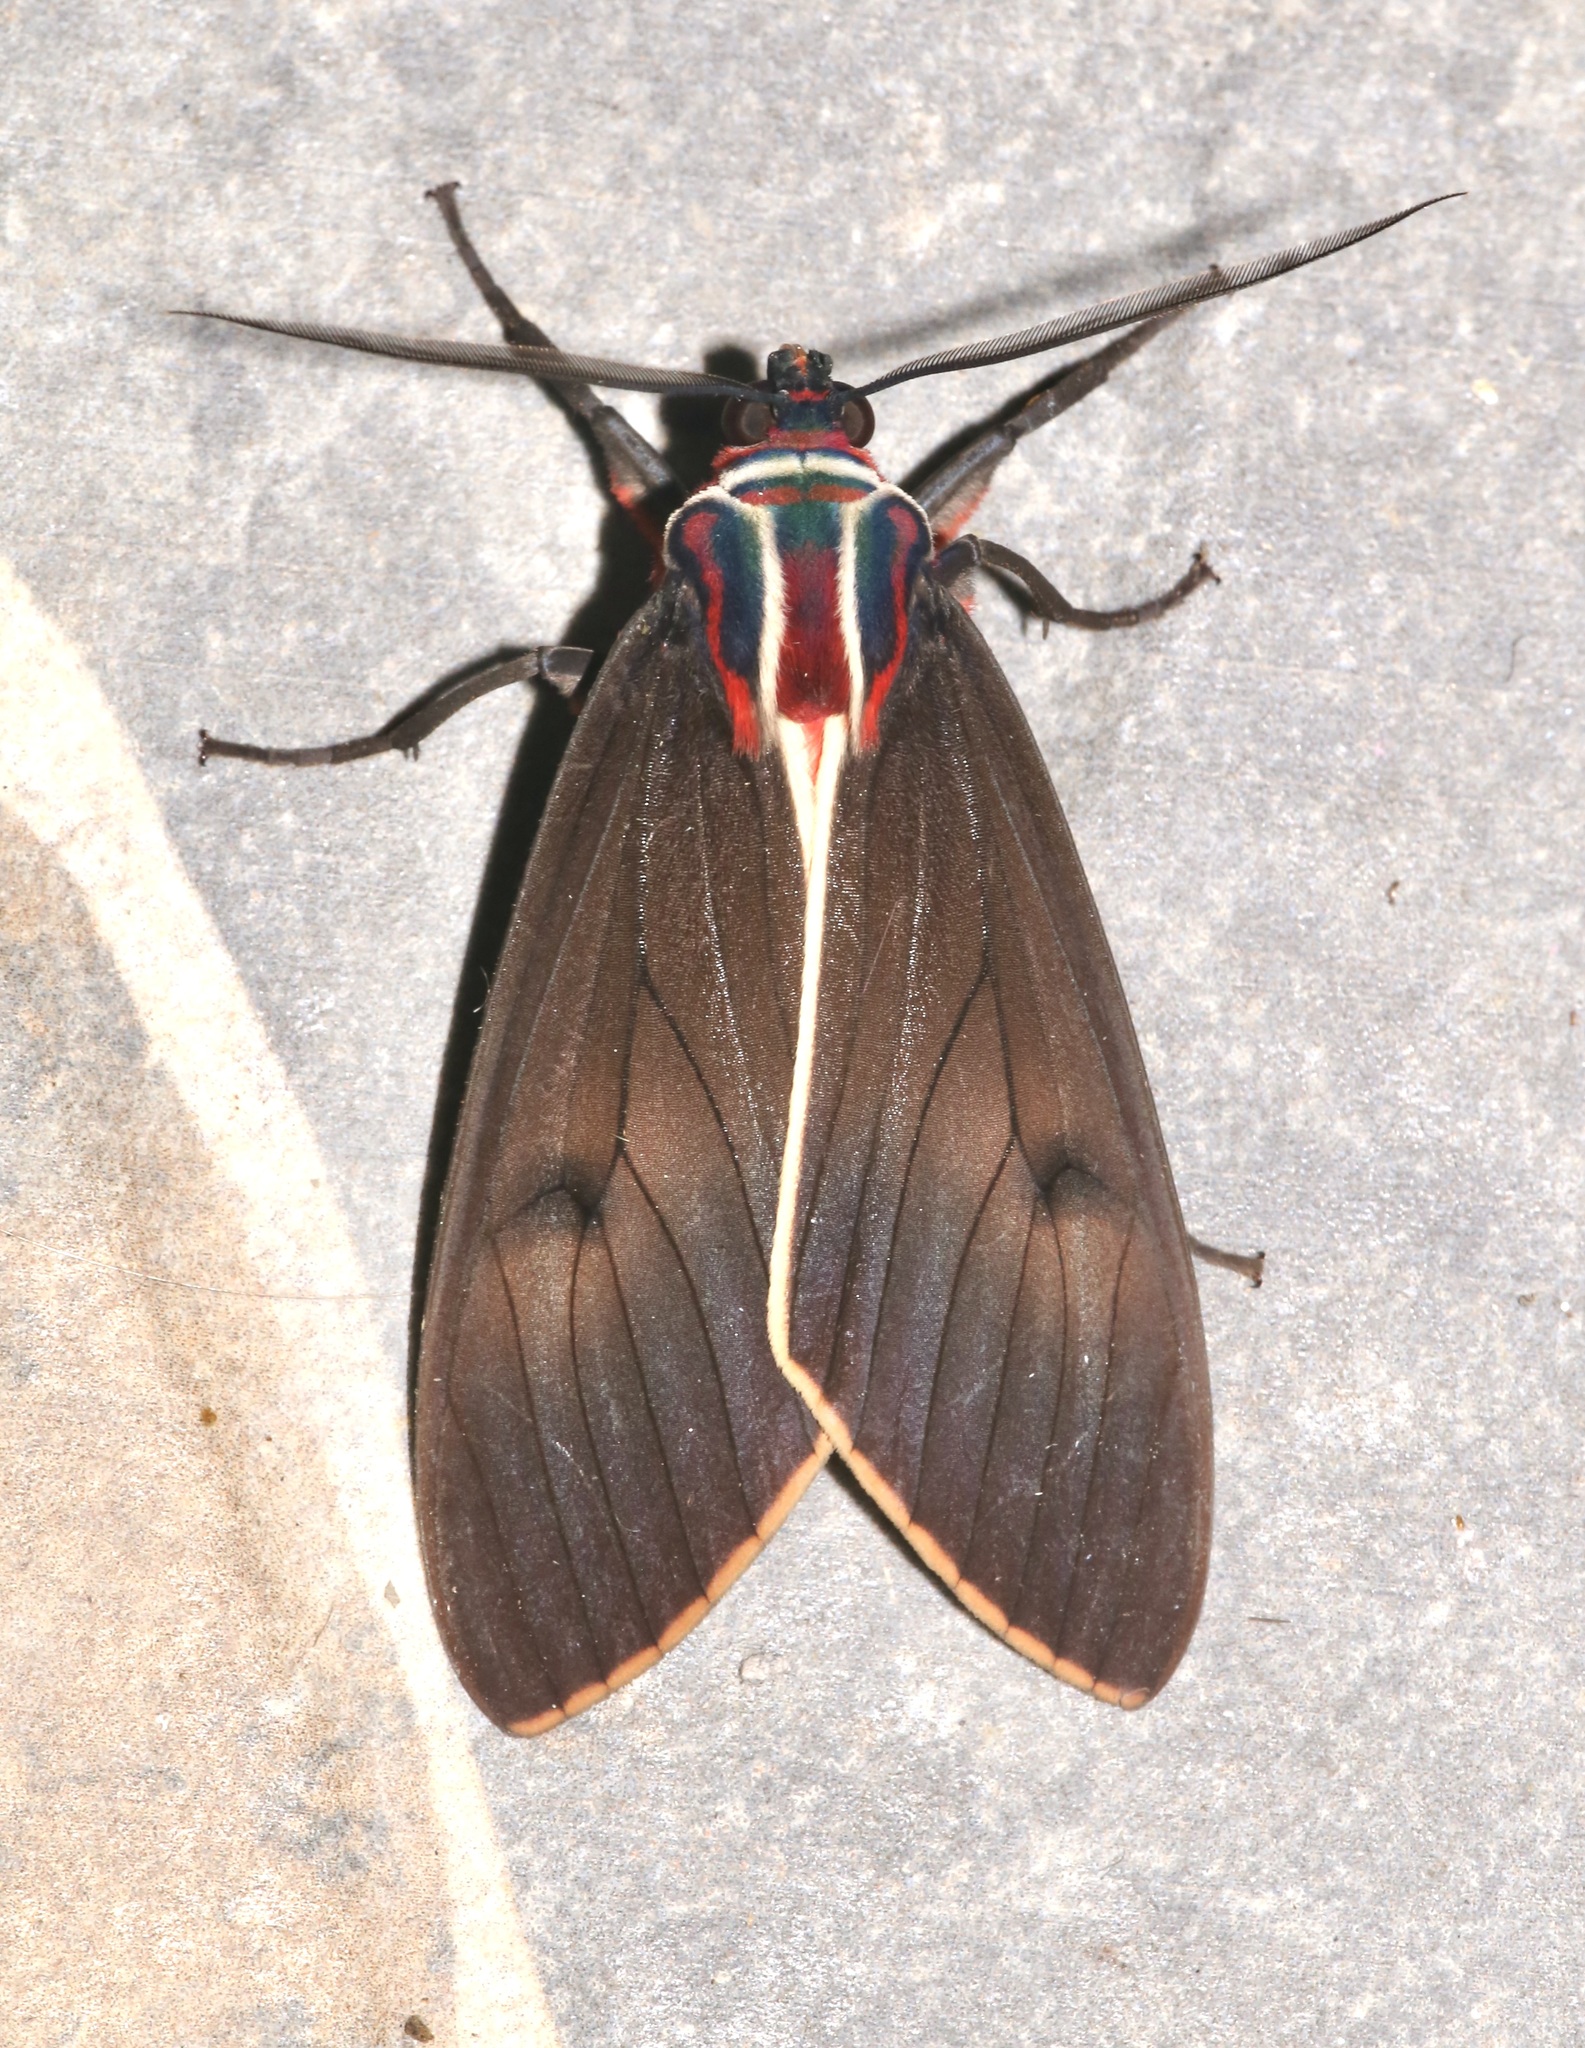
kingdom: Animalia
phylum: Arthropoda
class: Insecta
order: Lepidoptera
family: Erebidae
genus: Amastus
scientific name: Amastus episcotosia
